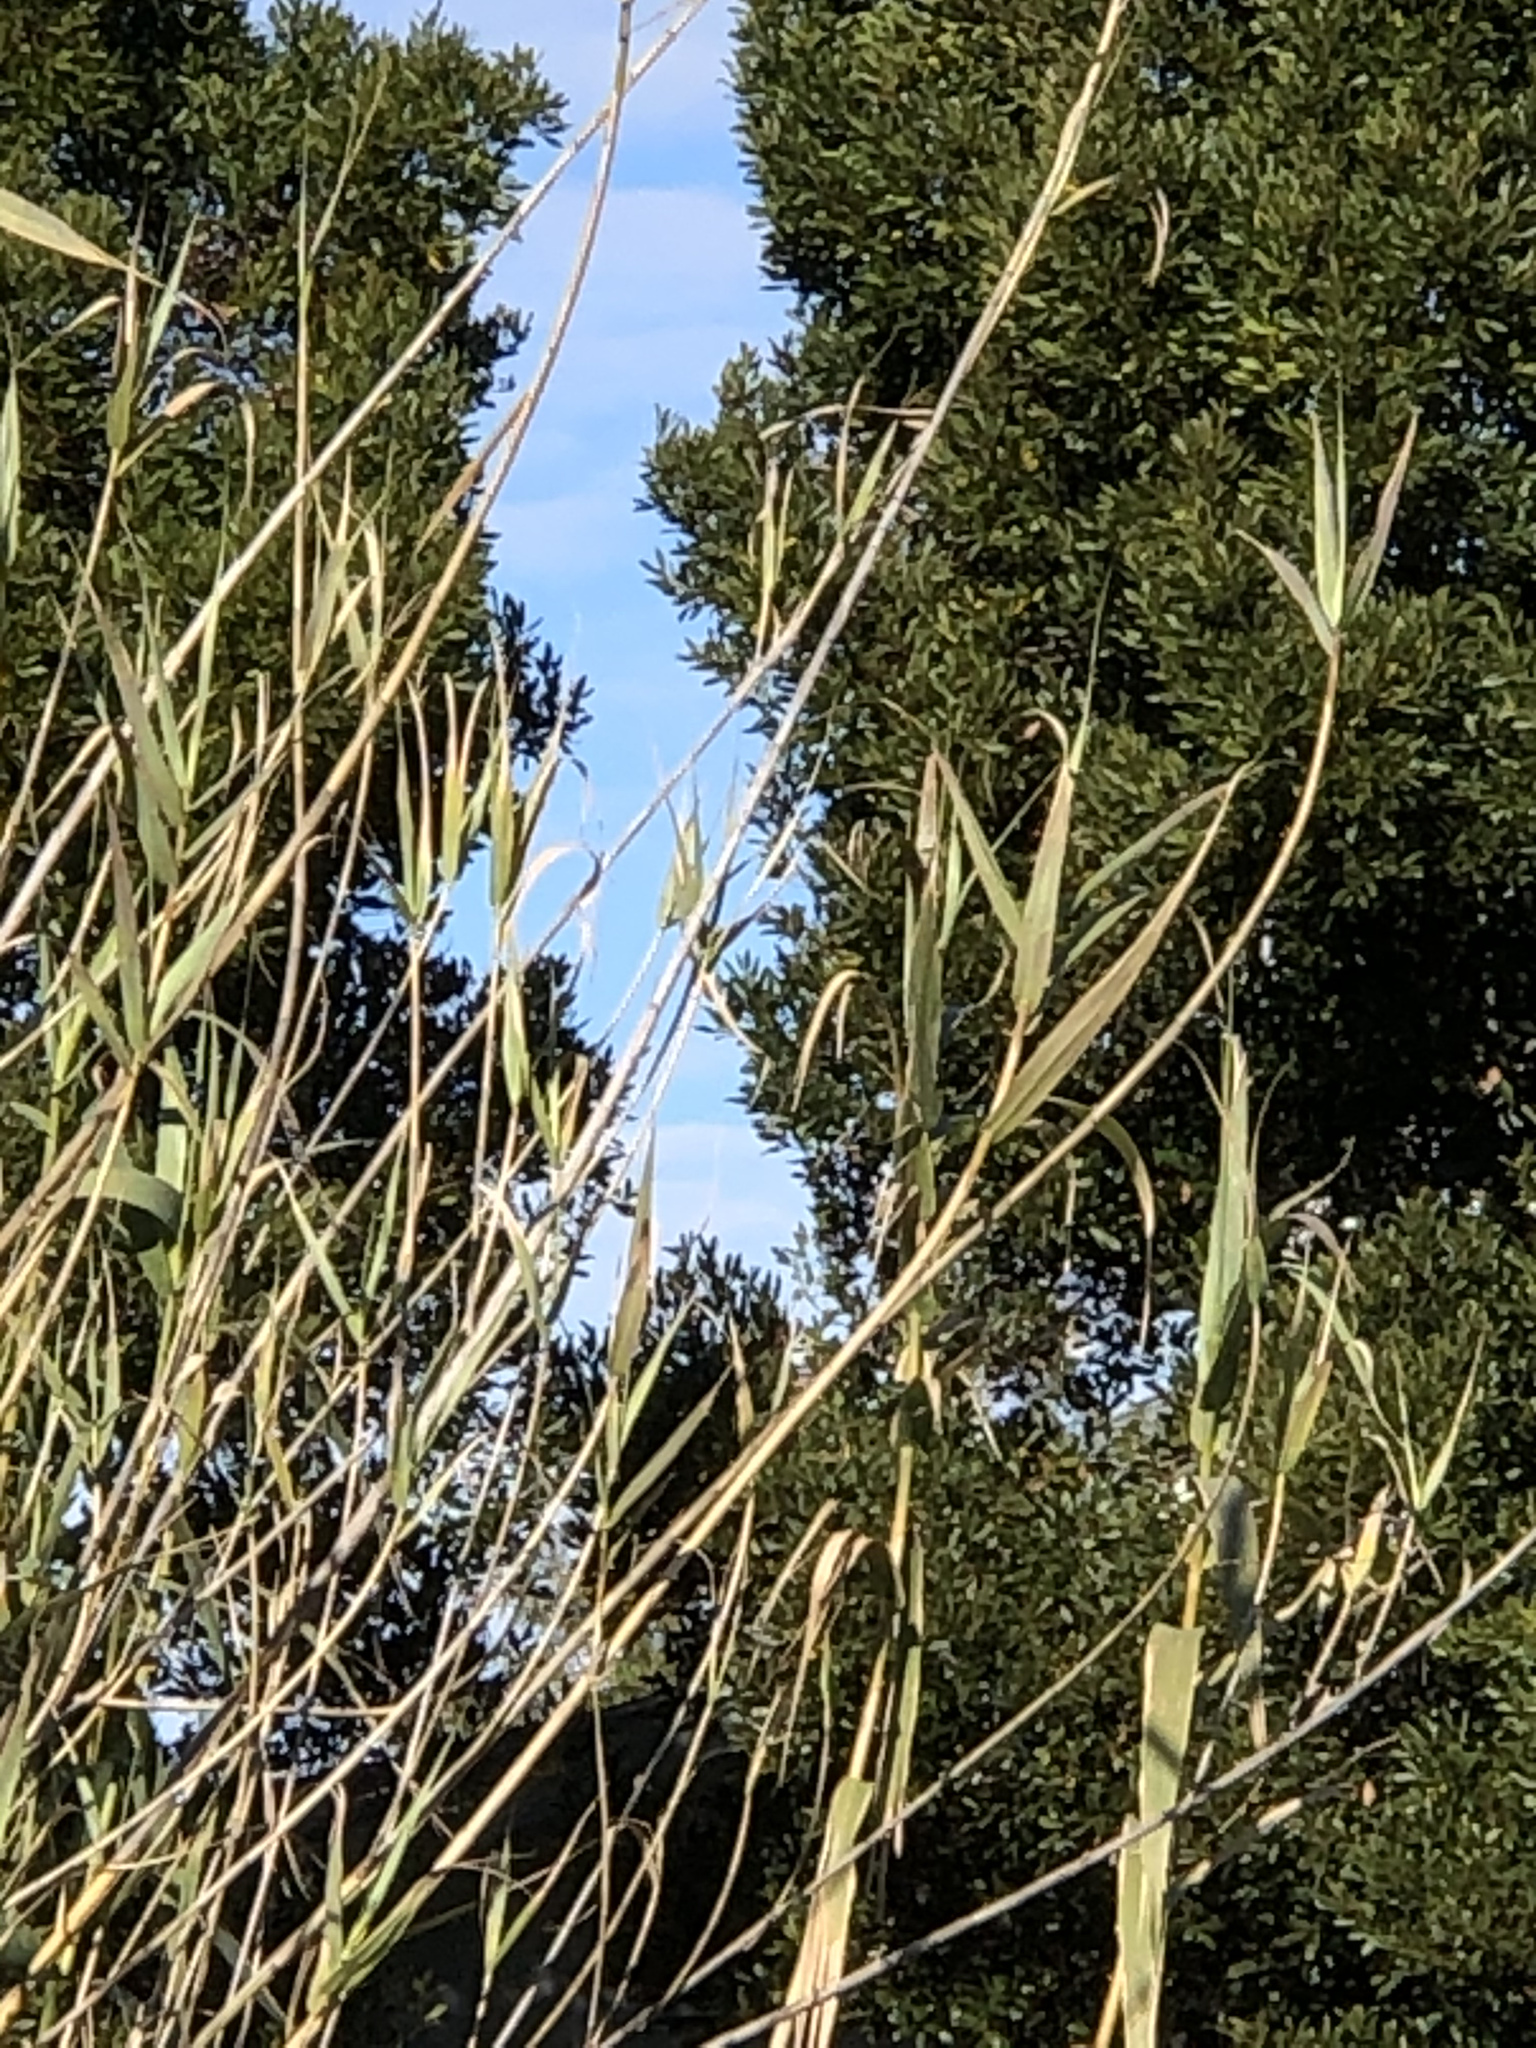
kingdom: Plantae
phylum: Tracheophyta
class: Liliopsida
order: Poales
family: Poaceae
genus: Arundo
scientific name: Arundo donax
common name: Giant reed
